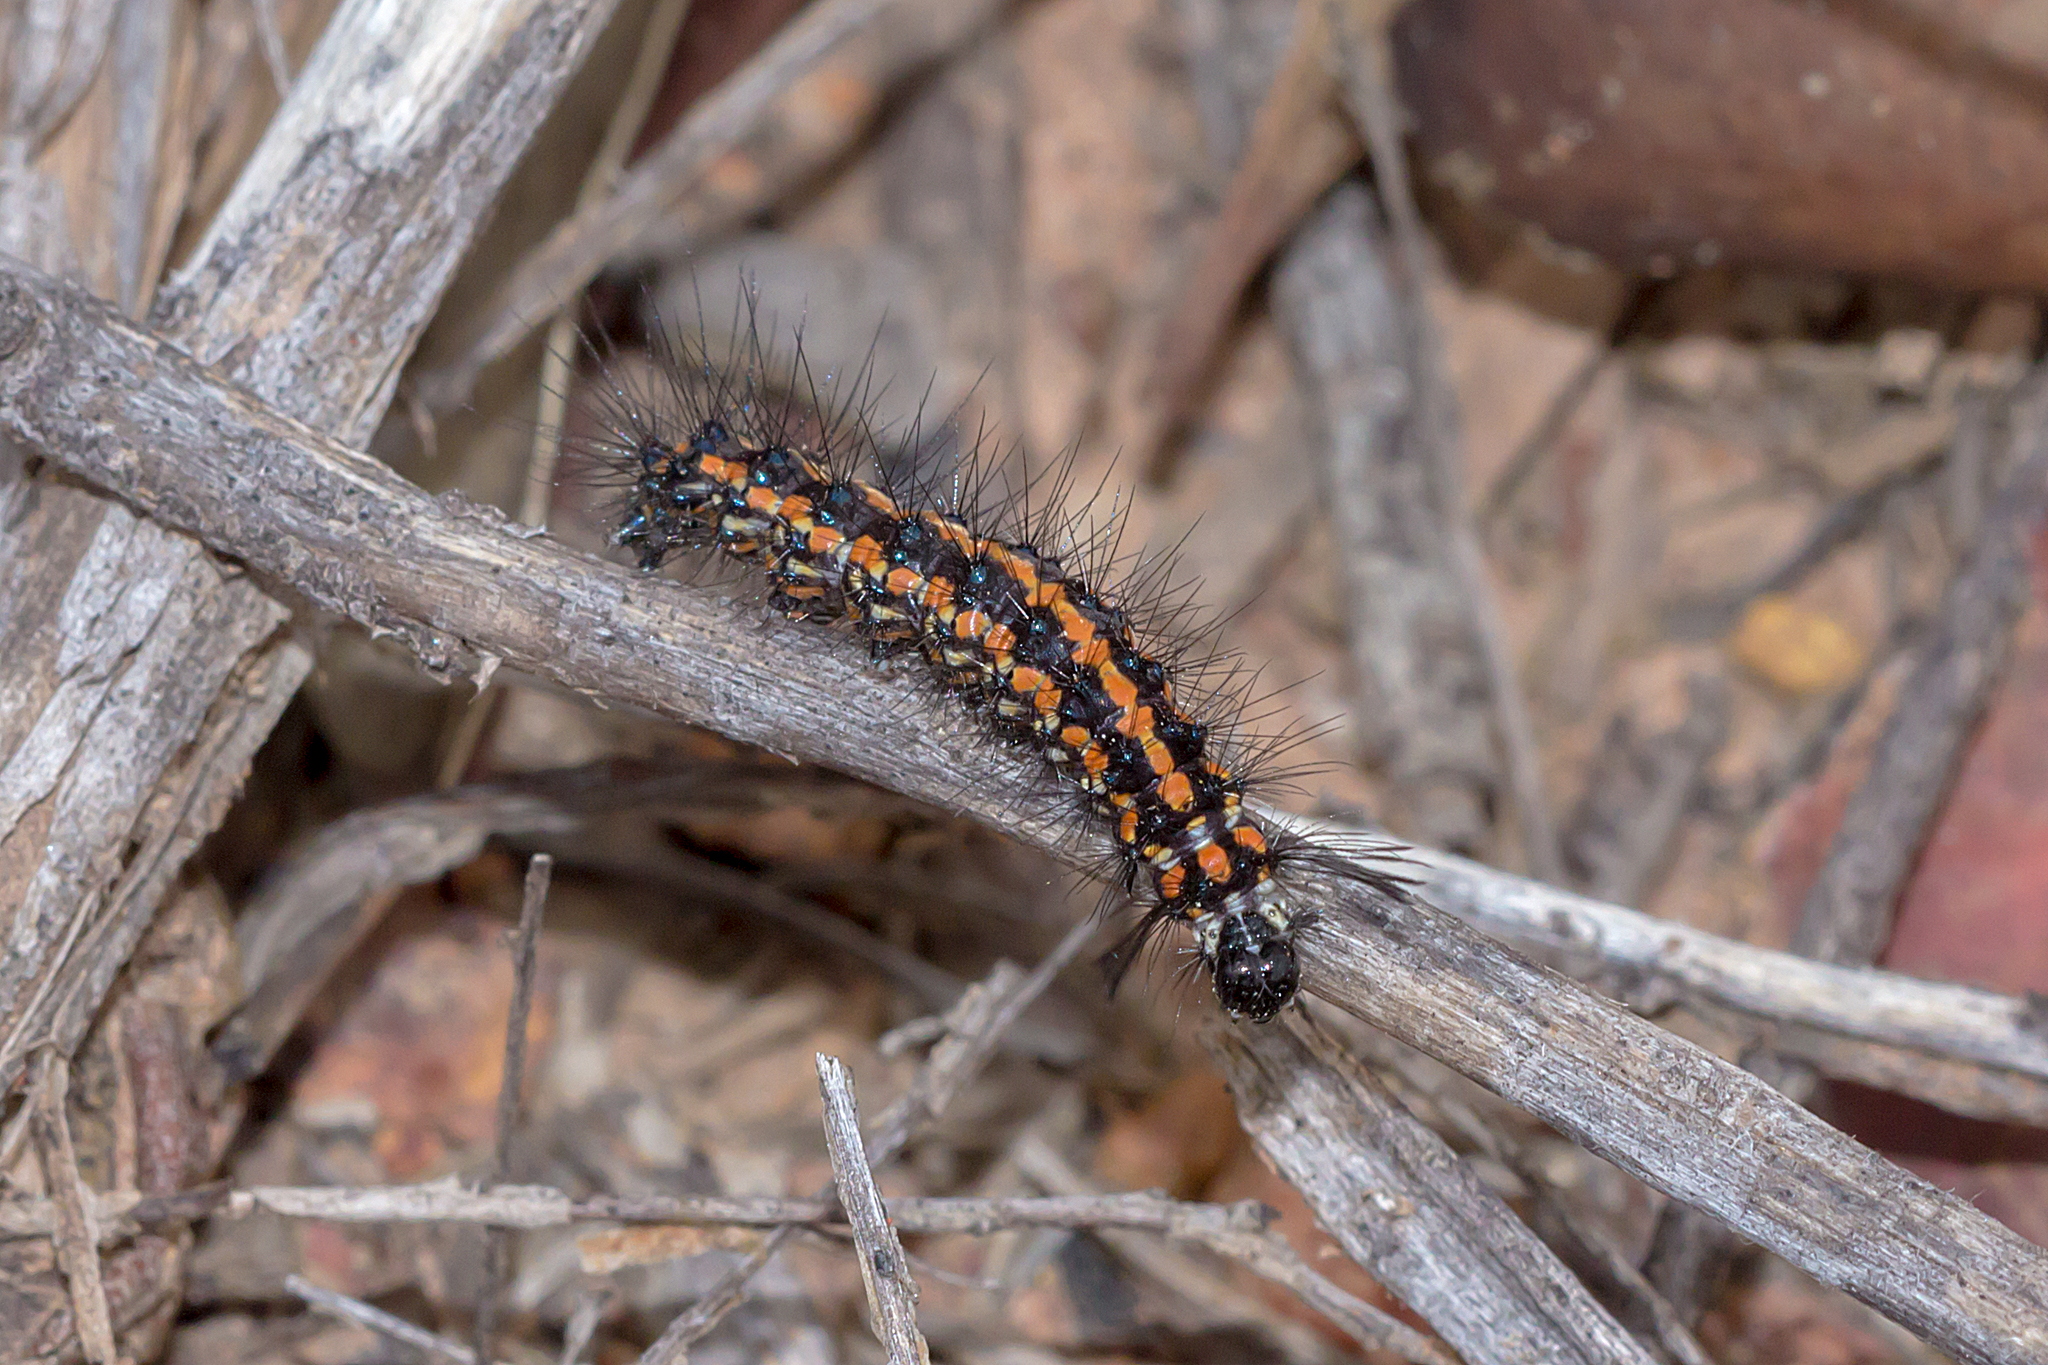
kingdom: Animalia
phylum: Arthropoda
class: Insecta
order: Lepidoptera
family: Erebidae
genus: Nyctemera
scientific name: Nyctemera amicus
